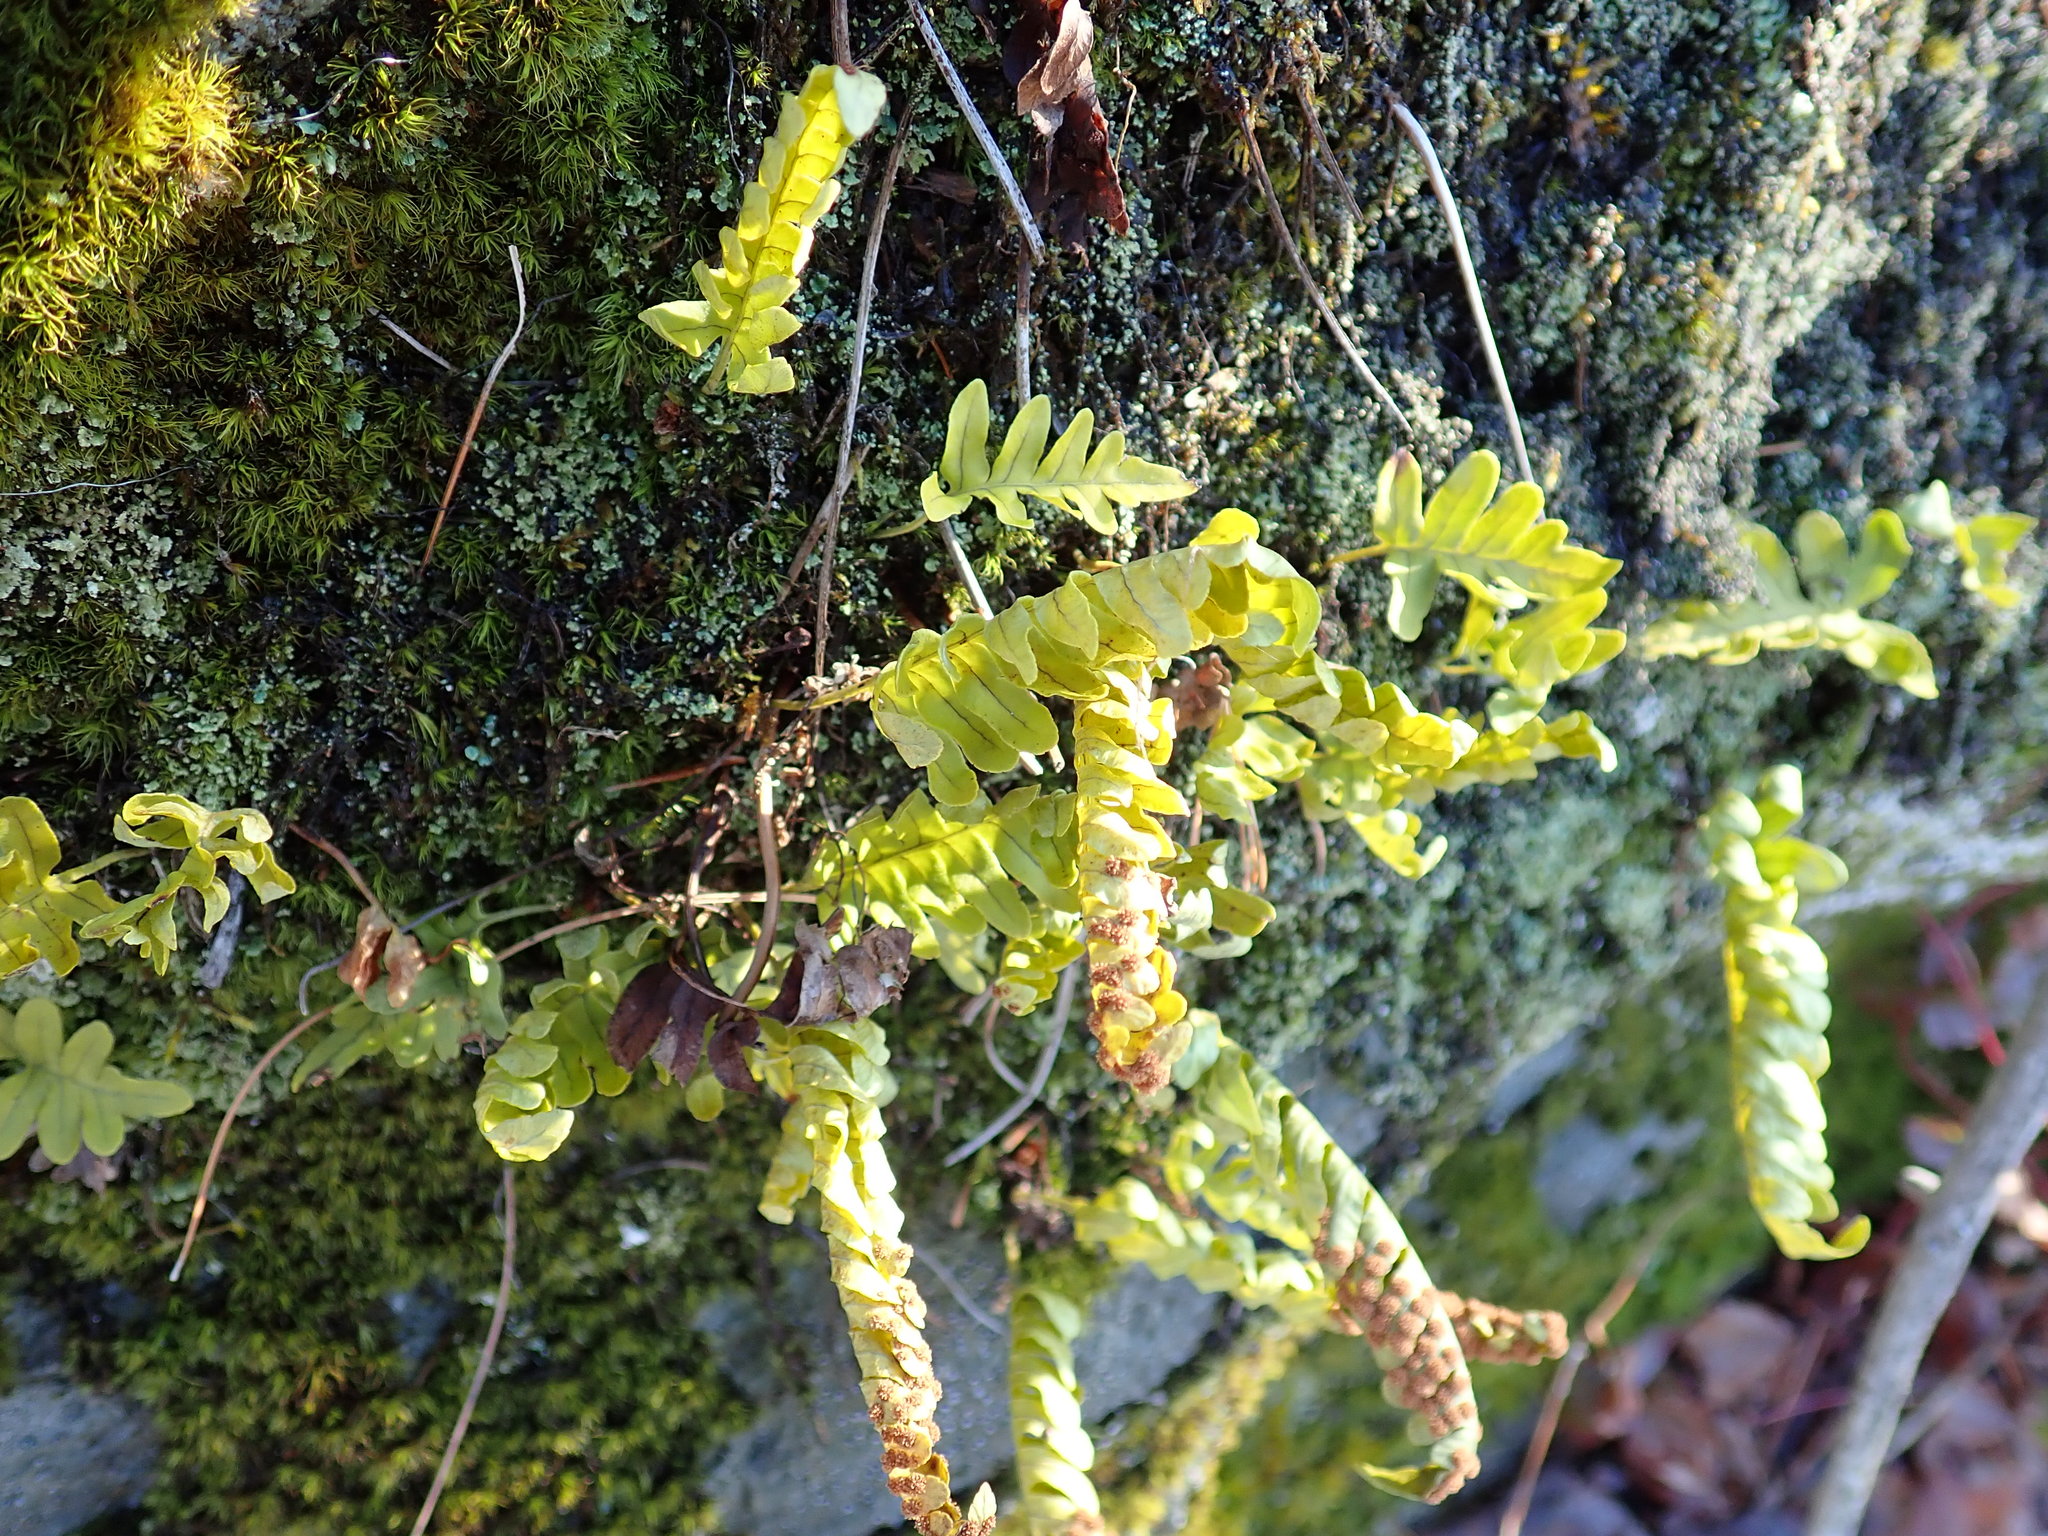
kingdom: Plantae
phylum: Tracheophyta
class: Polypodiopsida
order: Polypodiales
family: Polypodiaceae
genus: Polypodium
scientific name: Polypodium
